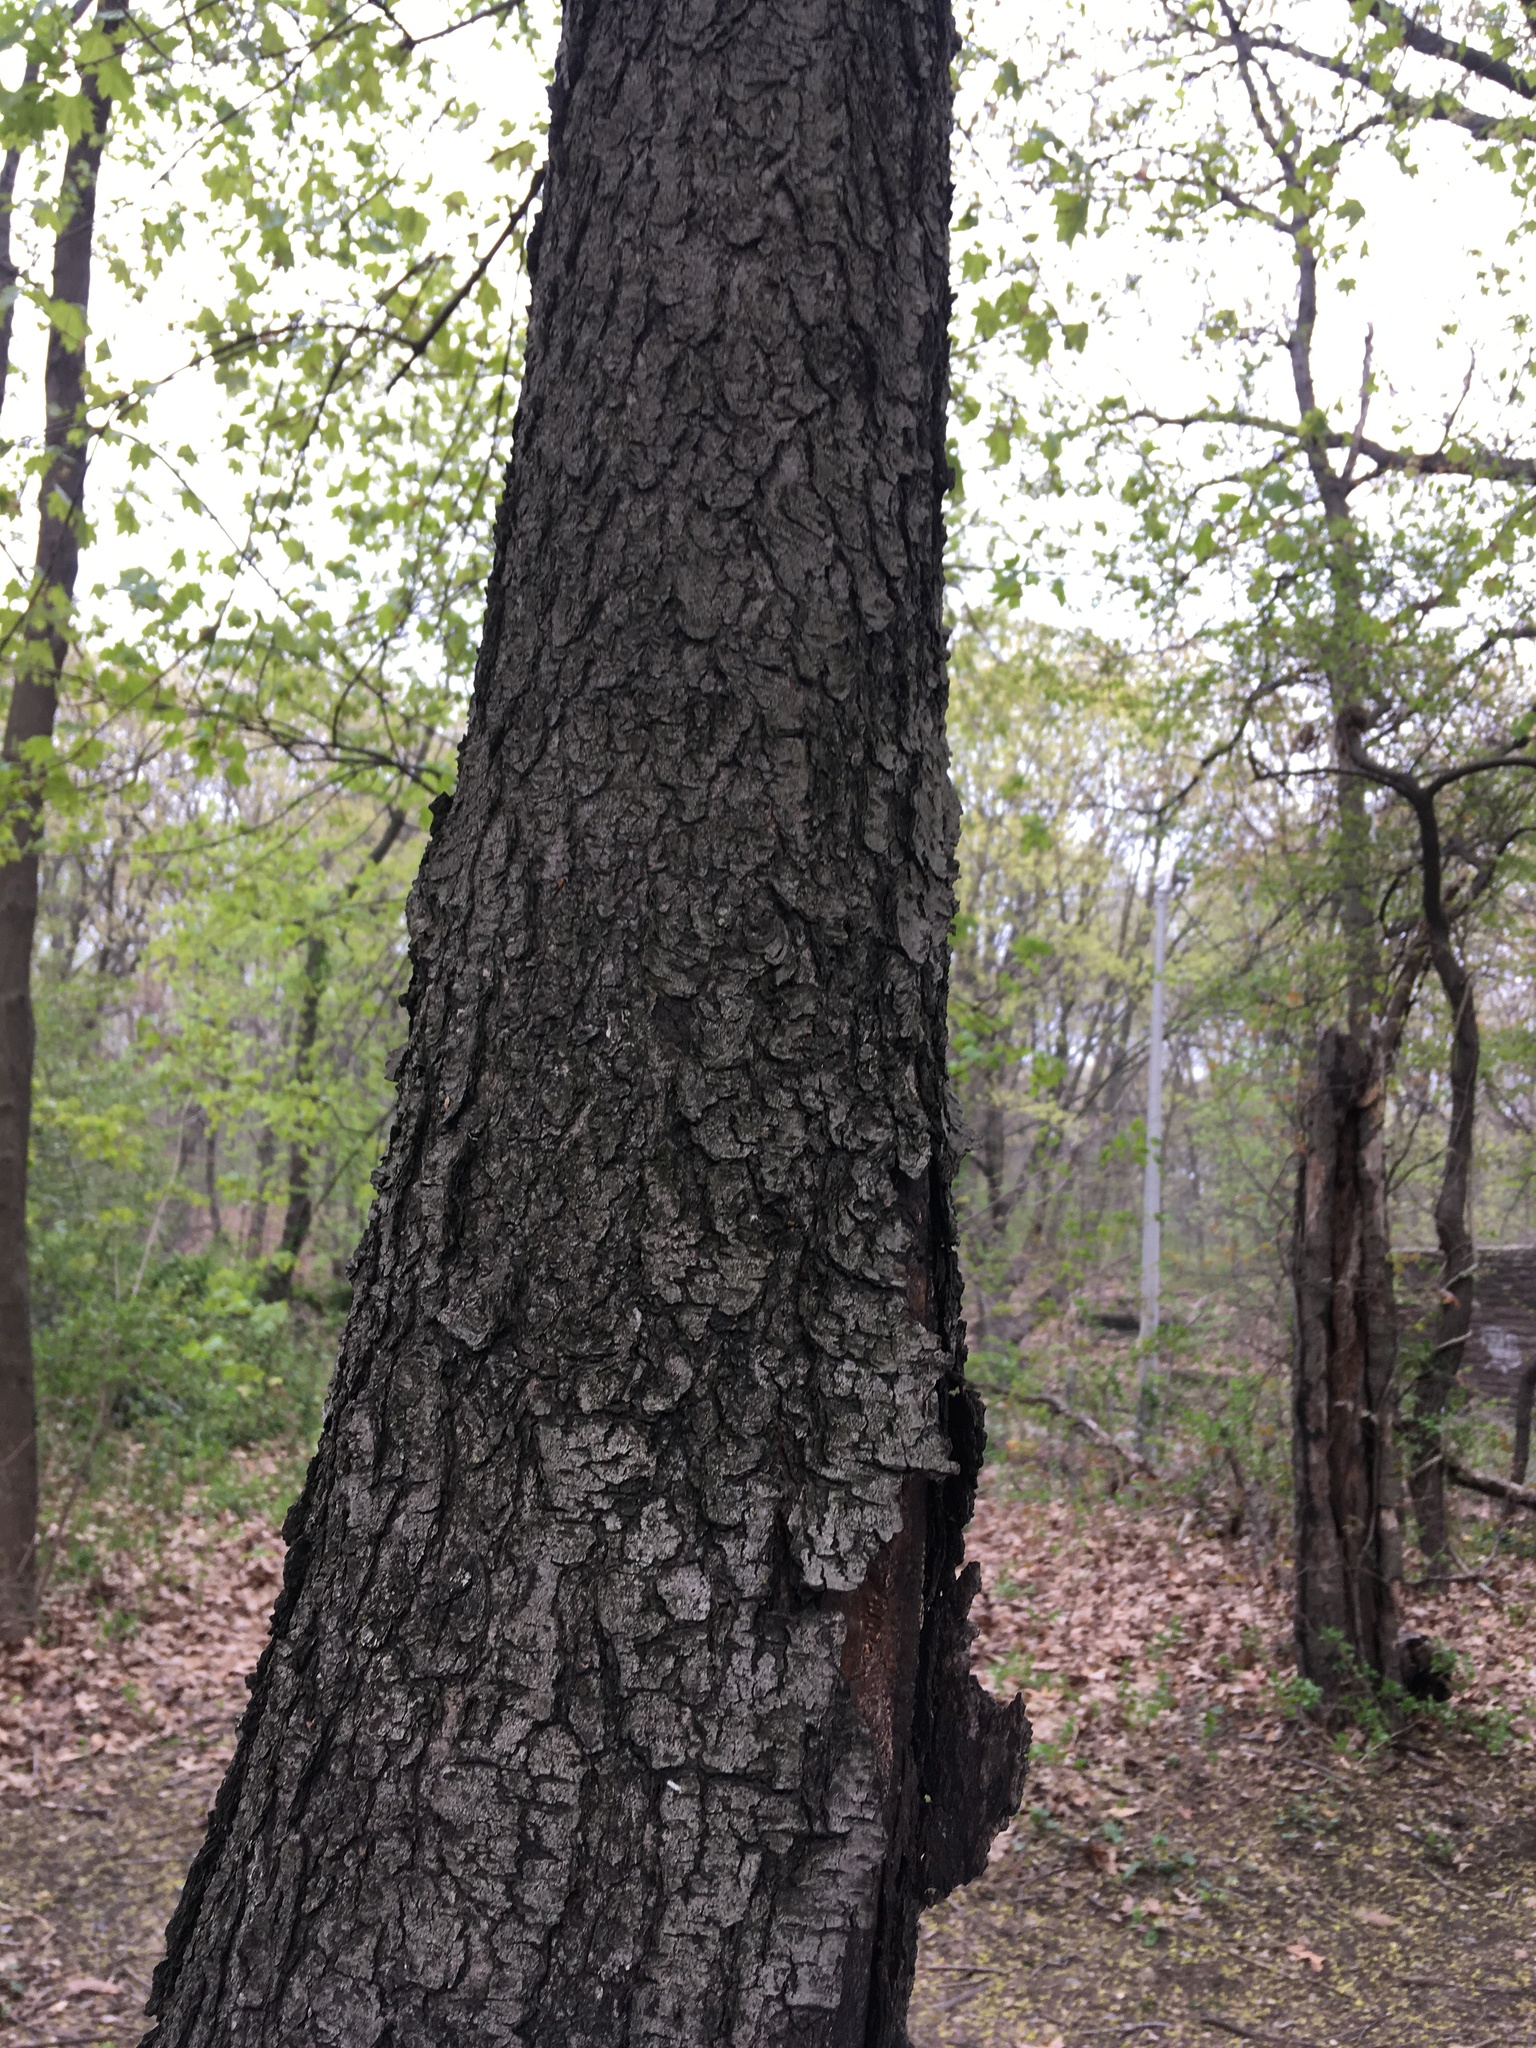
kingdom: Plantae
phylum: Tracheophyta
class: Magnoliopsida
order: Rosales
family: Rosaceae
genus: Prunus
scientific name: Prunus serotina
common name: Black cherry
